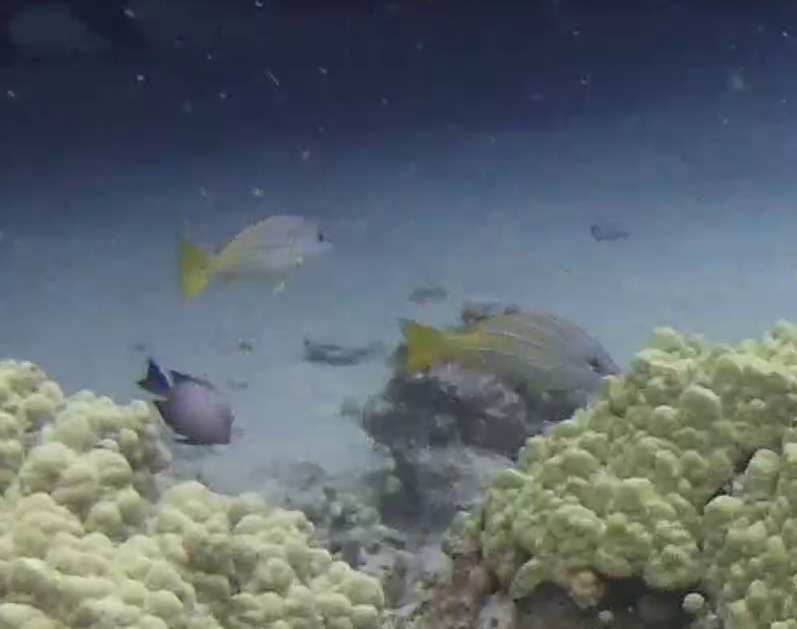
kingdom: Animalia
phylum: Chordata
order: Perciformes
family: Lutjanidae
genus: Lutjanus
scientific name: Lutjanus kasmira
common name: Common bluestripe snapper
